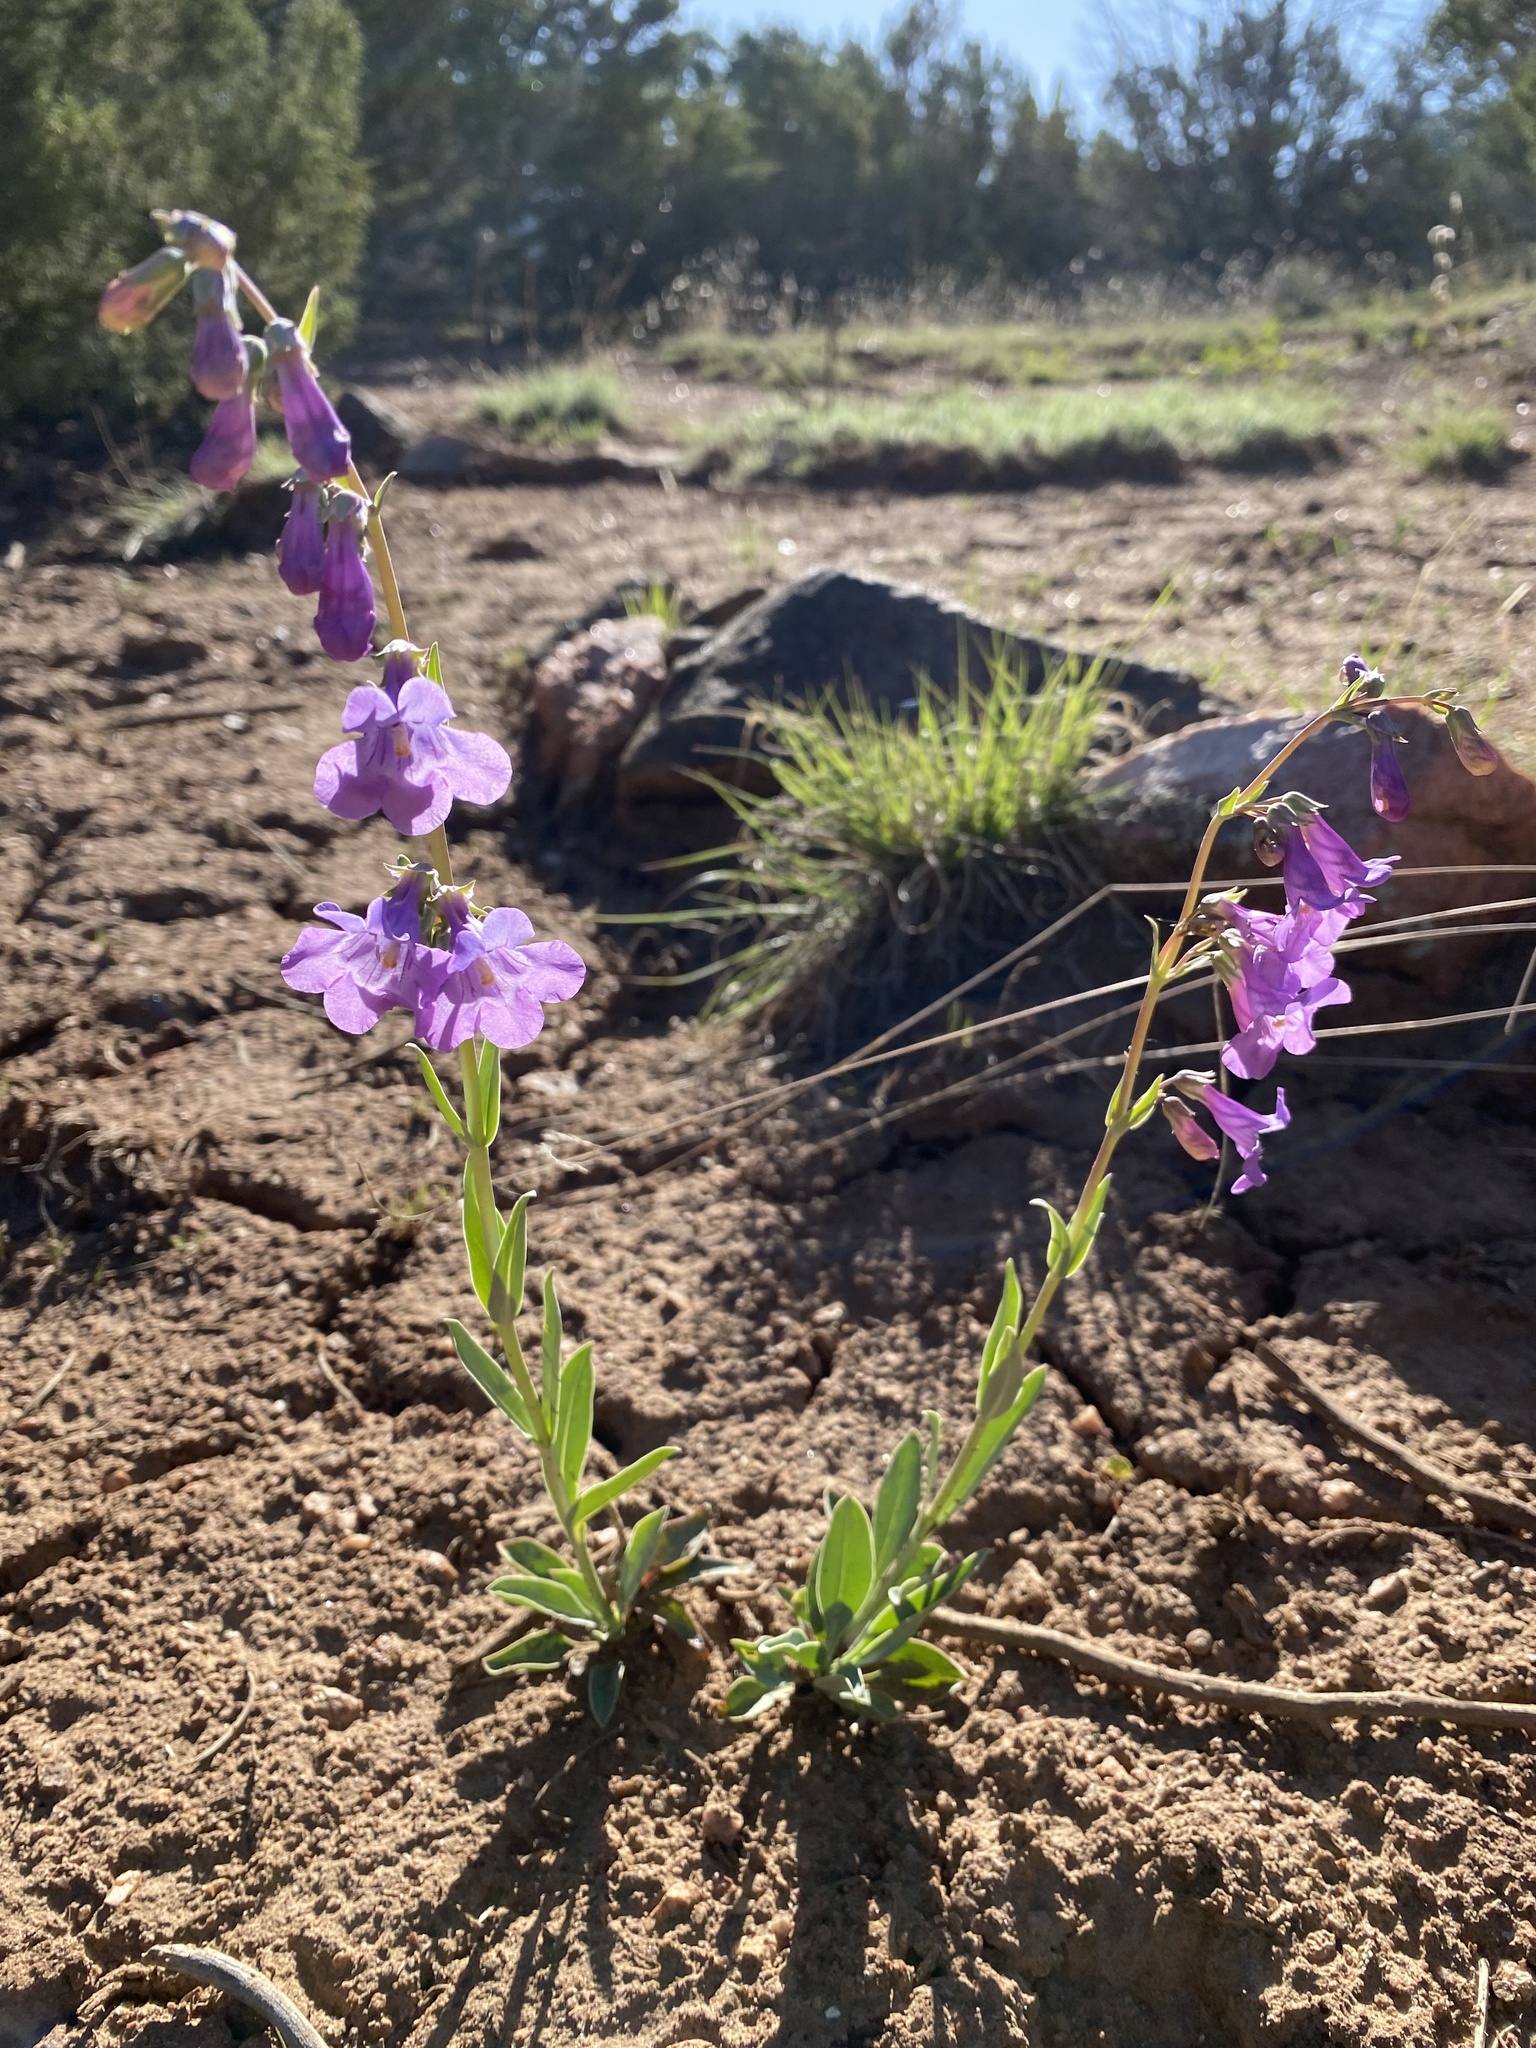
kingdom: Plantae
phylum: Tracheophyta
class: Magnoliopsida
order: Lamiales
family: Plantaginaceae
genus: Penstemon
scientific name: Penstemon secundiflorus
